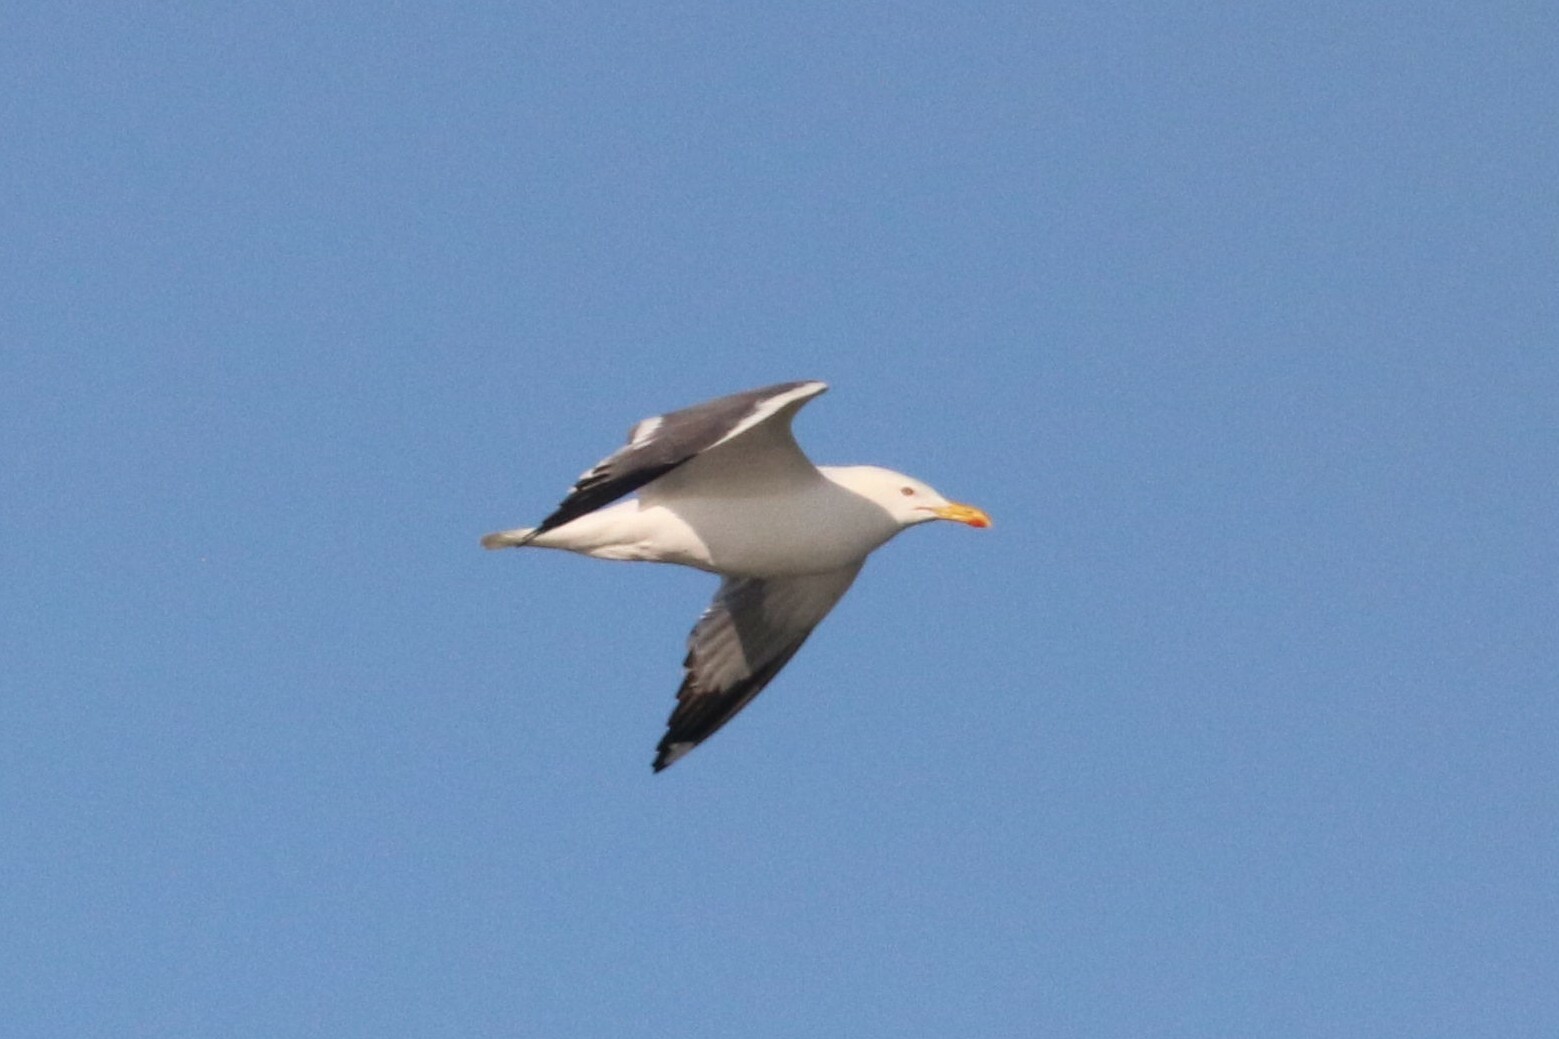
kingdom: Animalia
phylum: Chordata
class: Aves
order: Charadriiformes
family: Laridae
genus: Larus
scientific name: Larus fuscus
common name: Lesser black-backed gull
